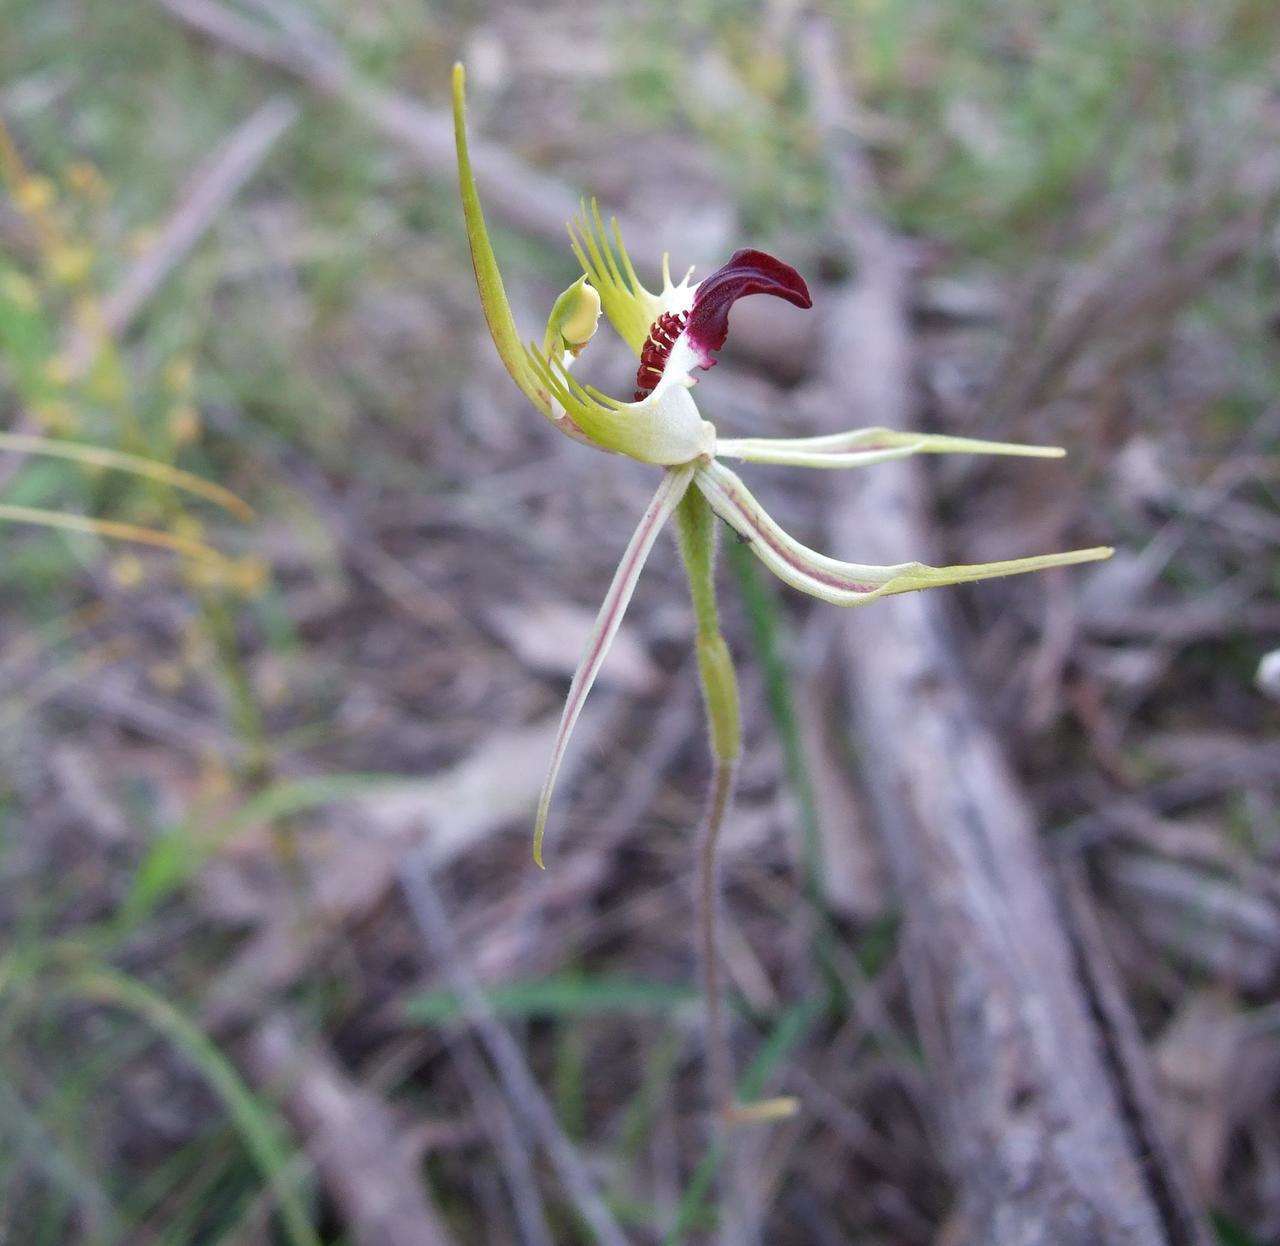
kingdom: Plantae
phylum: Tracheophyta
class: Liliopsida
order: Asparagales
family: Orchidaceae
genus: Caladenia
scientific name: Caladenia parva
